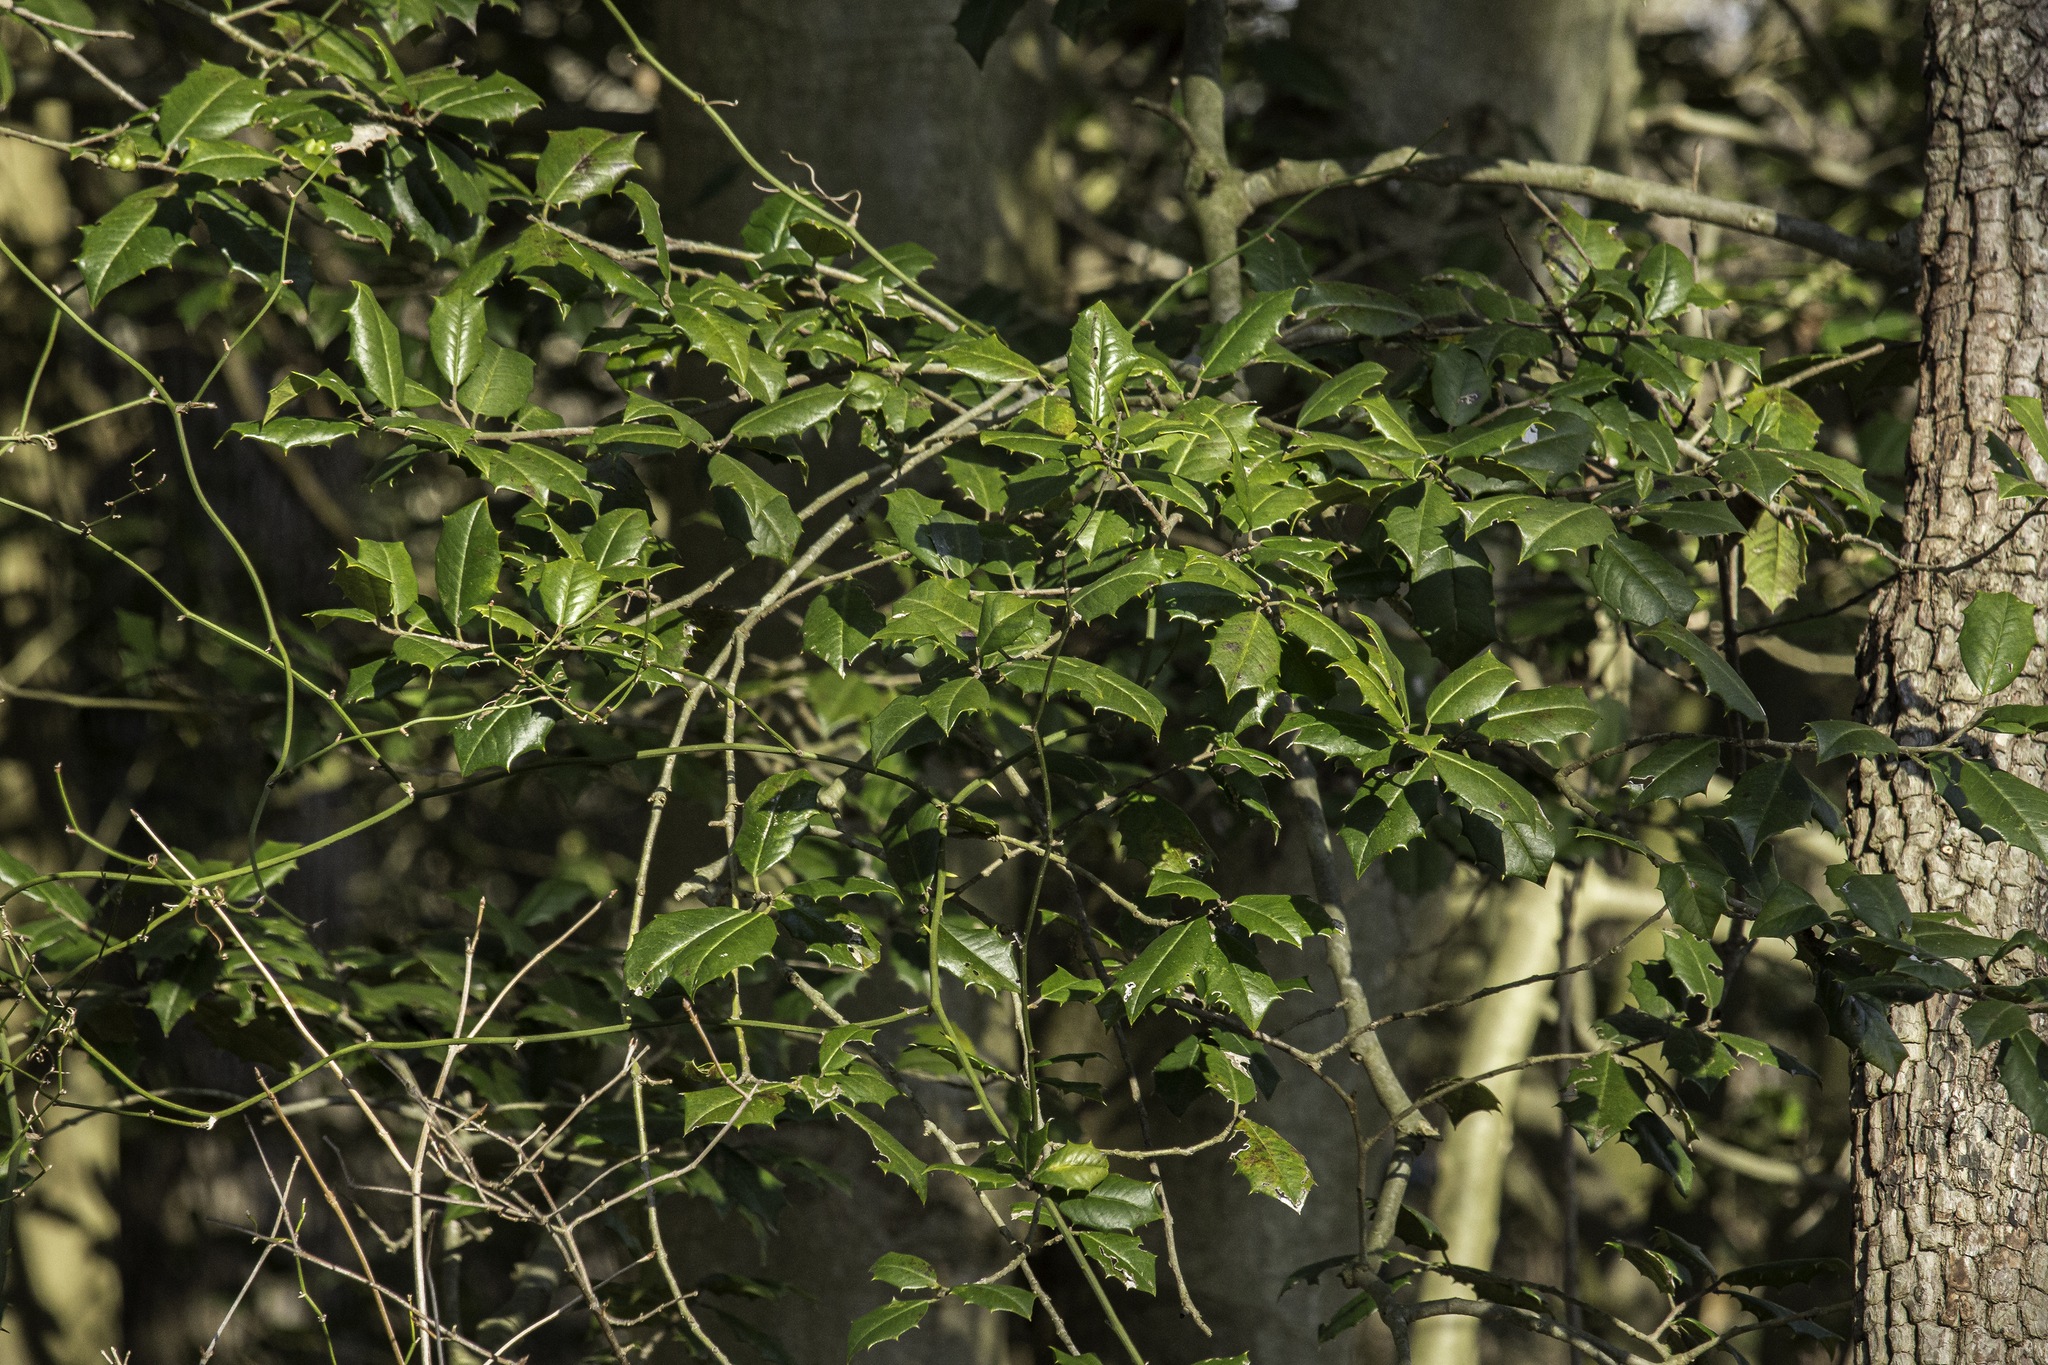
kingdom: Plantae
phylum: Tracheophyta
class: Magnoliopsida
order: Aquifoliales
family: Aquifoliaceae
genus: Ilex
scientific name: Ilex opaca
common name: American holly
